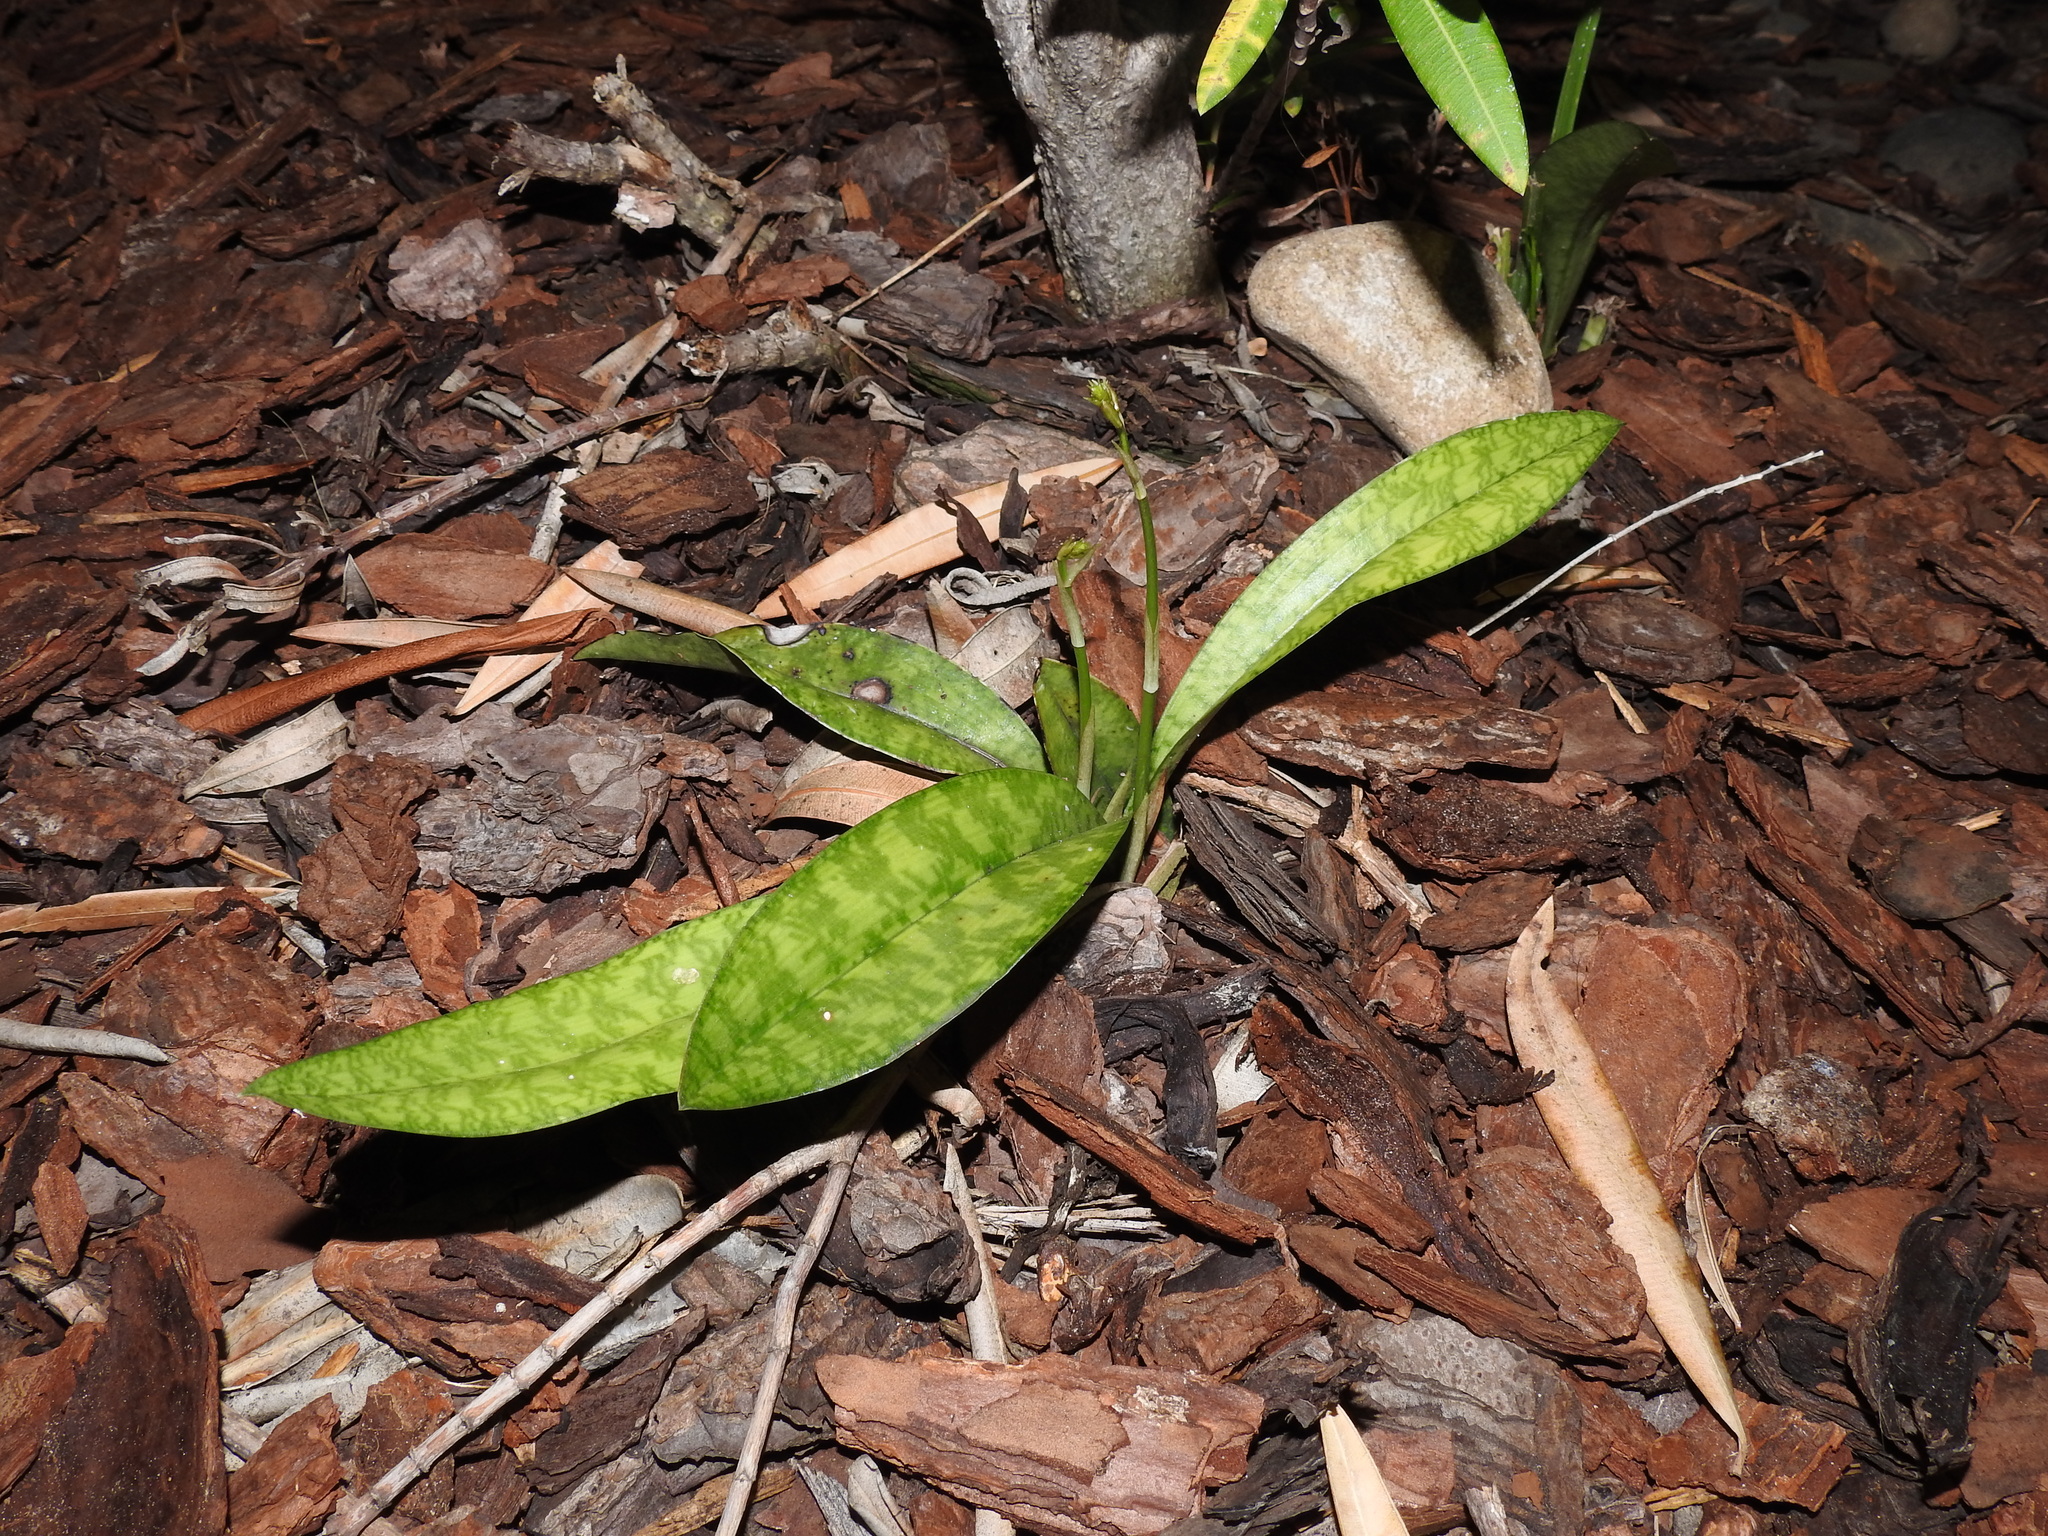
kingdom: Plantae
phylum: Tracheophyta
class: Liliopsida
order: Asparagales
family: Orchidaceae
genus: Eulophia
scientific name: Eulophia maculata
